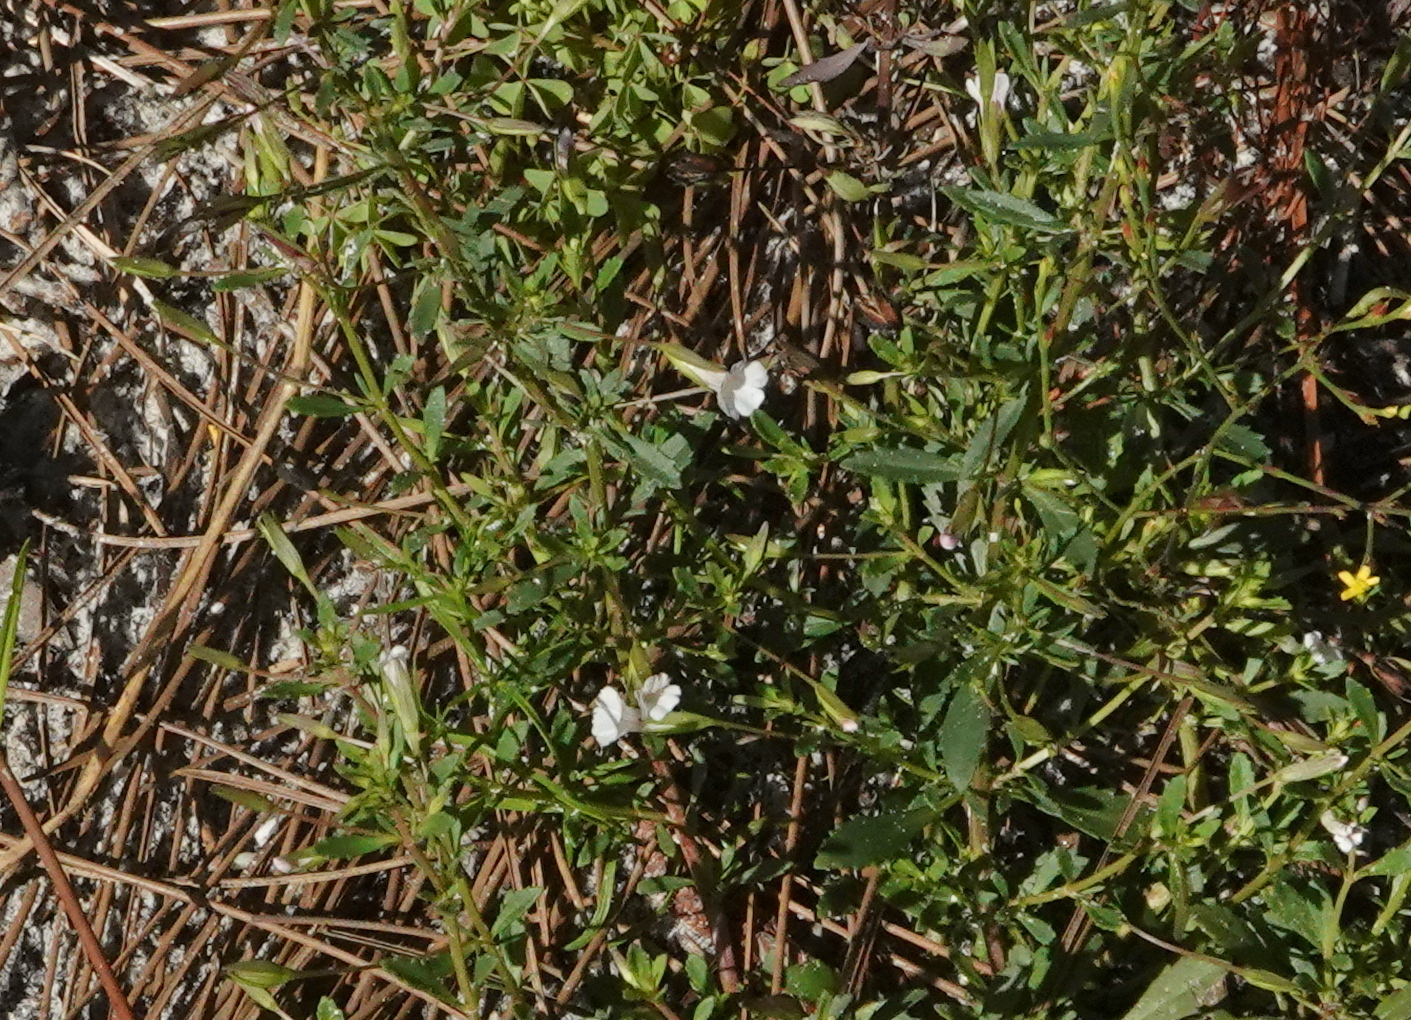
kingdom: Plantae
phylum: Tracheophyta
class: Magnoliopsida
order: Lamiales
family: Plantaginaceae
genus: Mecardonia
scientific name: Mecardonia acuminata
